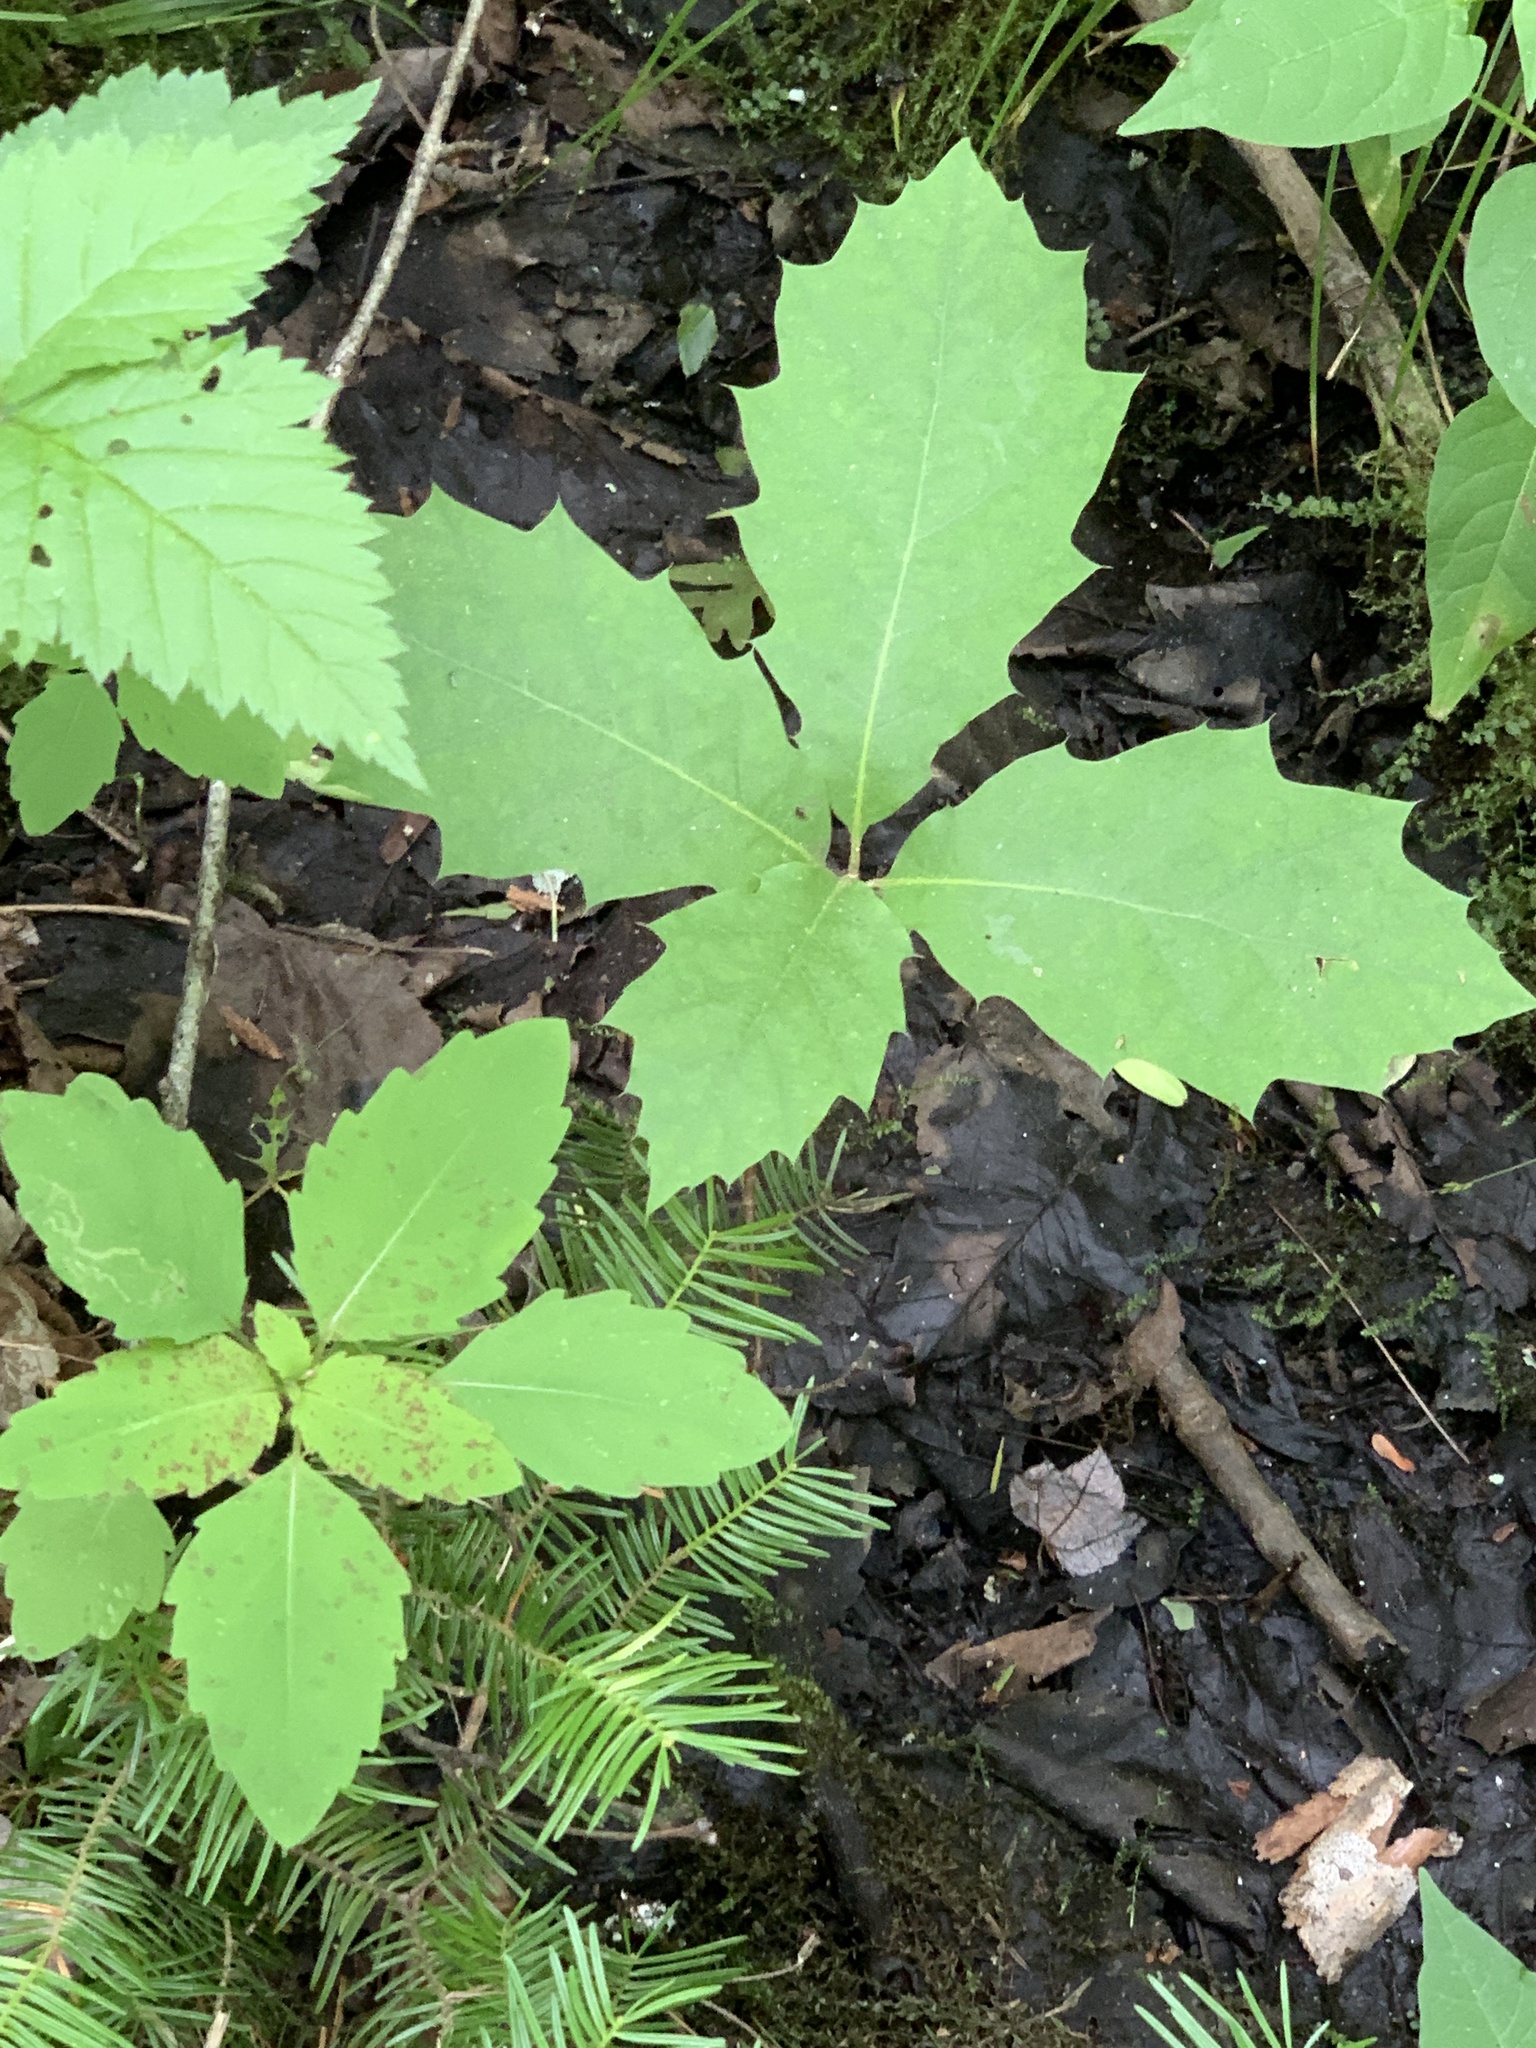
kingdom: Plantae
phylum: Tracheophyta
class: Magnoliopsida
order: Fagales
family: Fagaceae
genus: Quercus
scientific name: Quercus rubra
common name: Red oak
